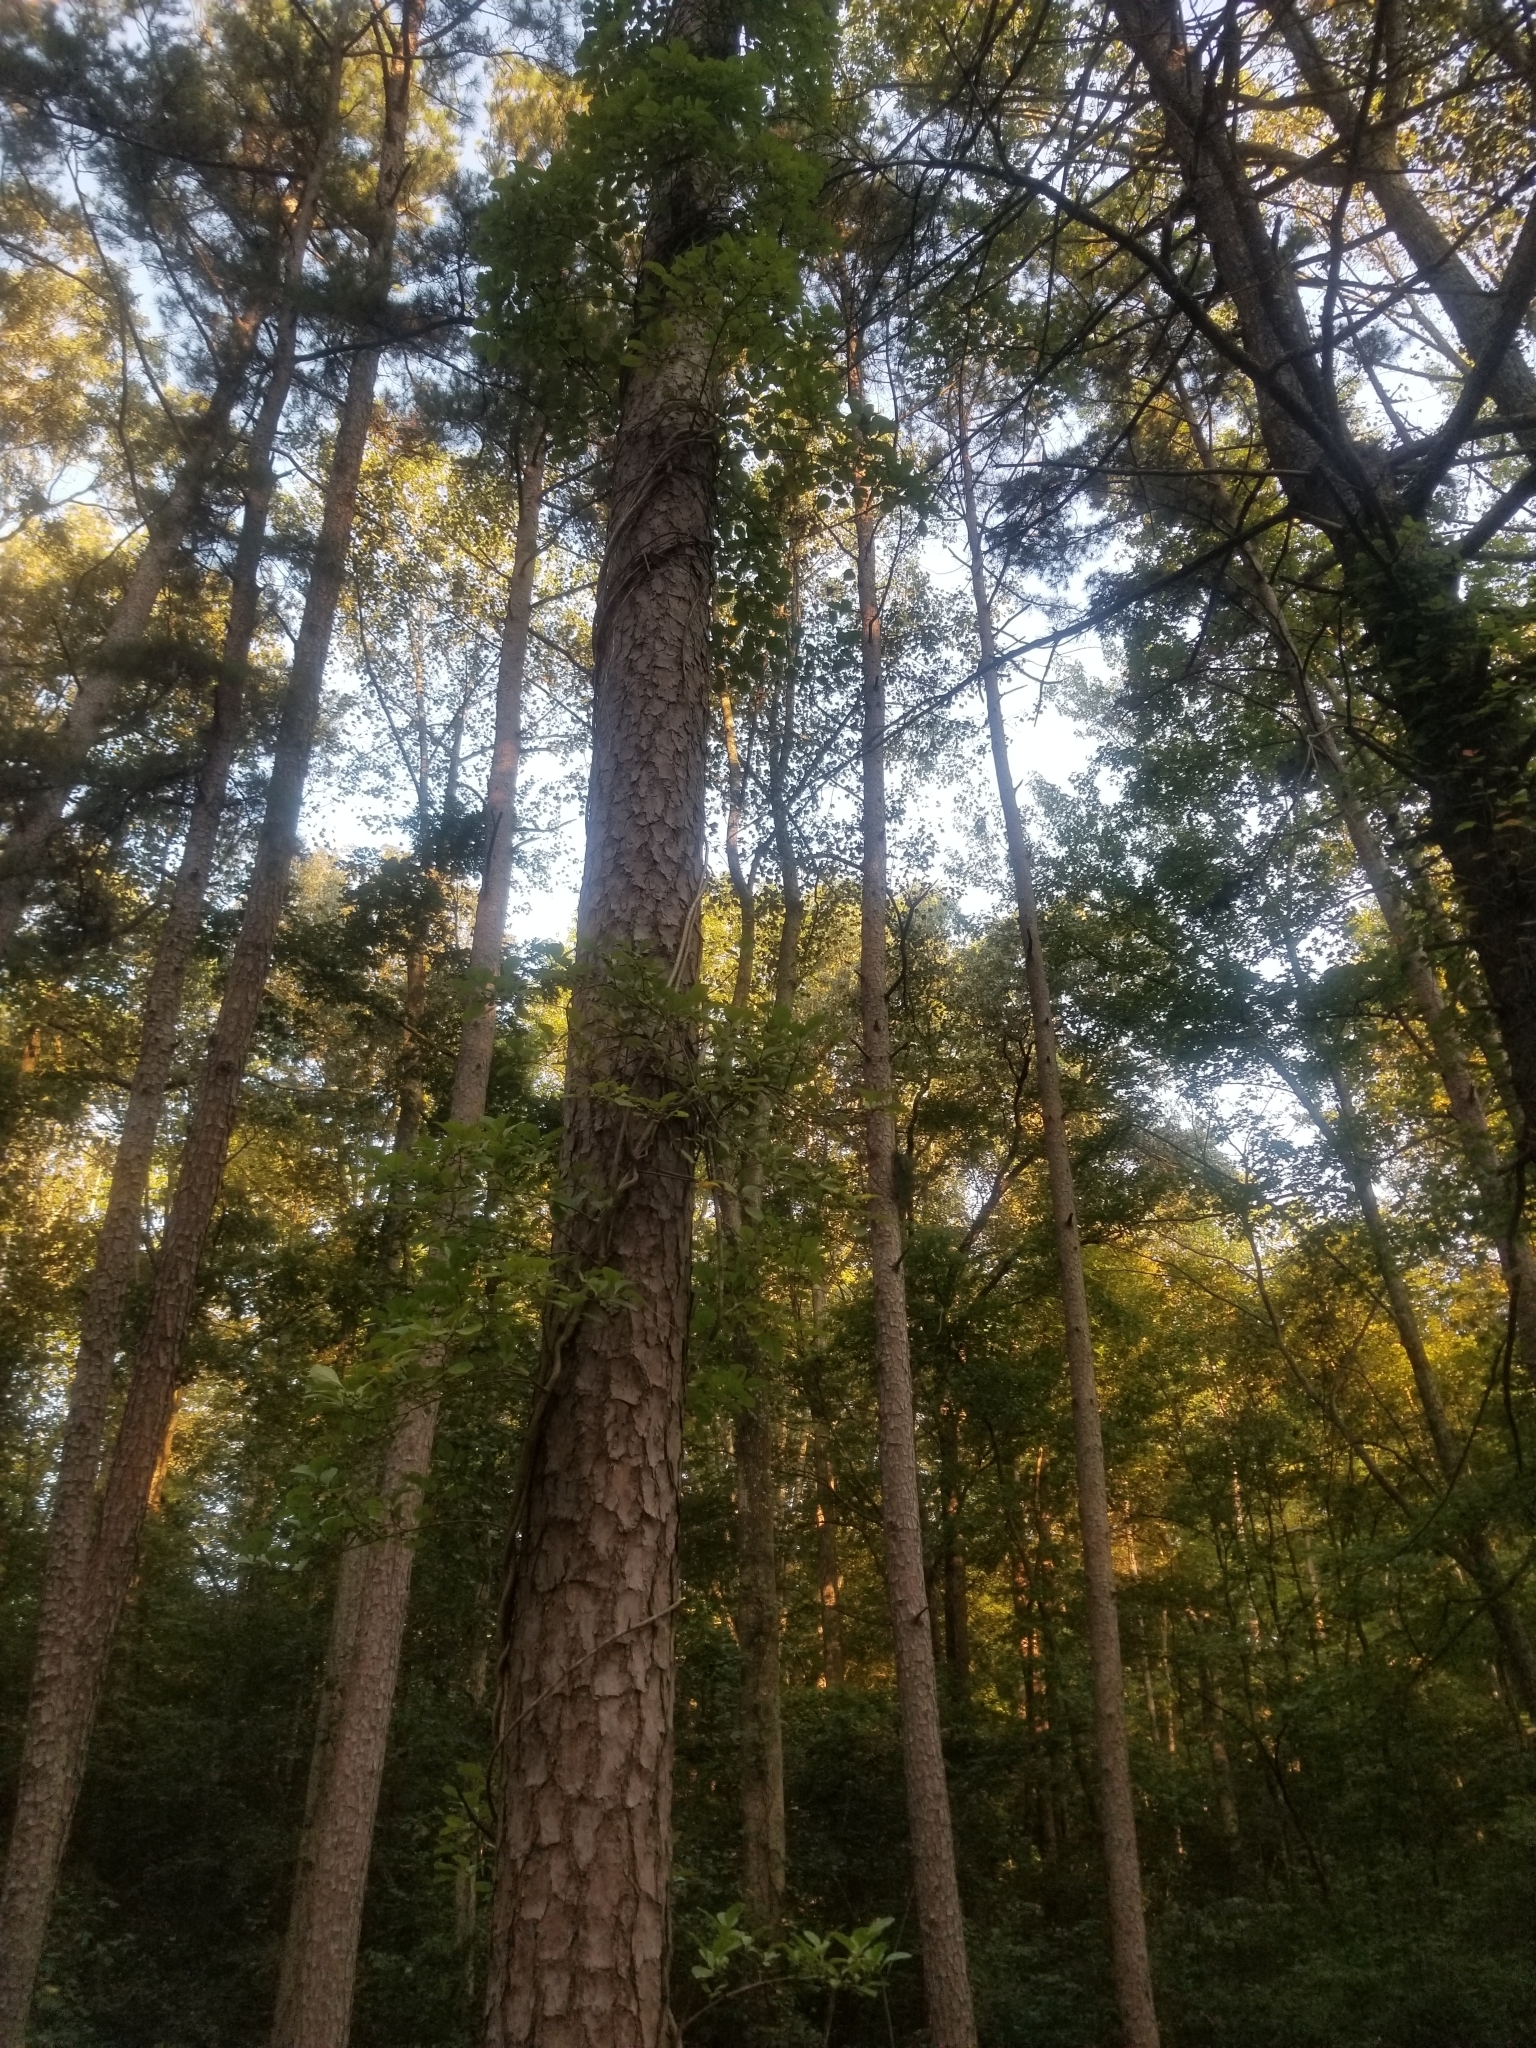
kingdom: Plantae
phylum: Tracheophyta
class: Magnoliopsida
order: Celastrales
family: Celastraceae
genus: Celastrus
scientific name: Celastrus orbiculatus
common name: Oriental bittersweet
